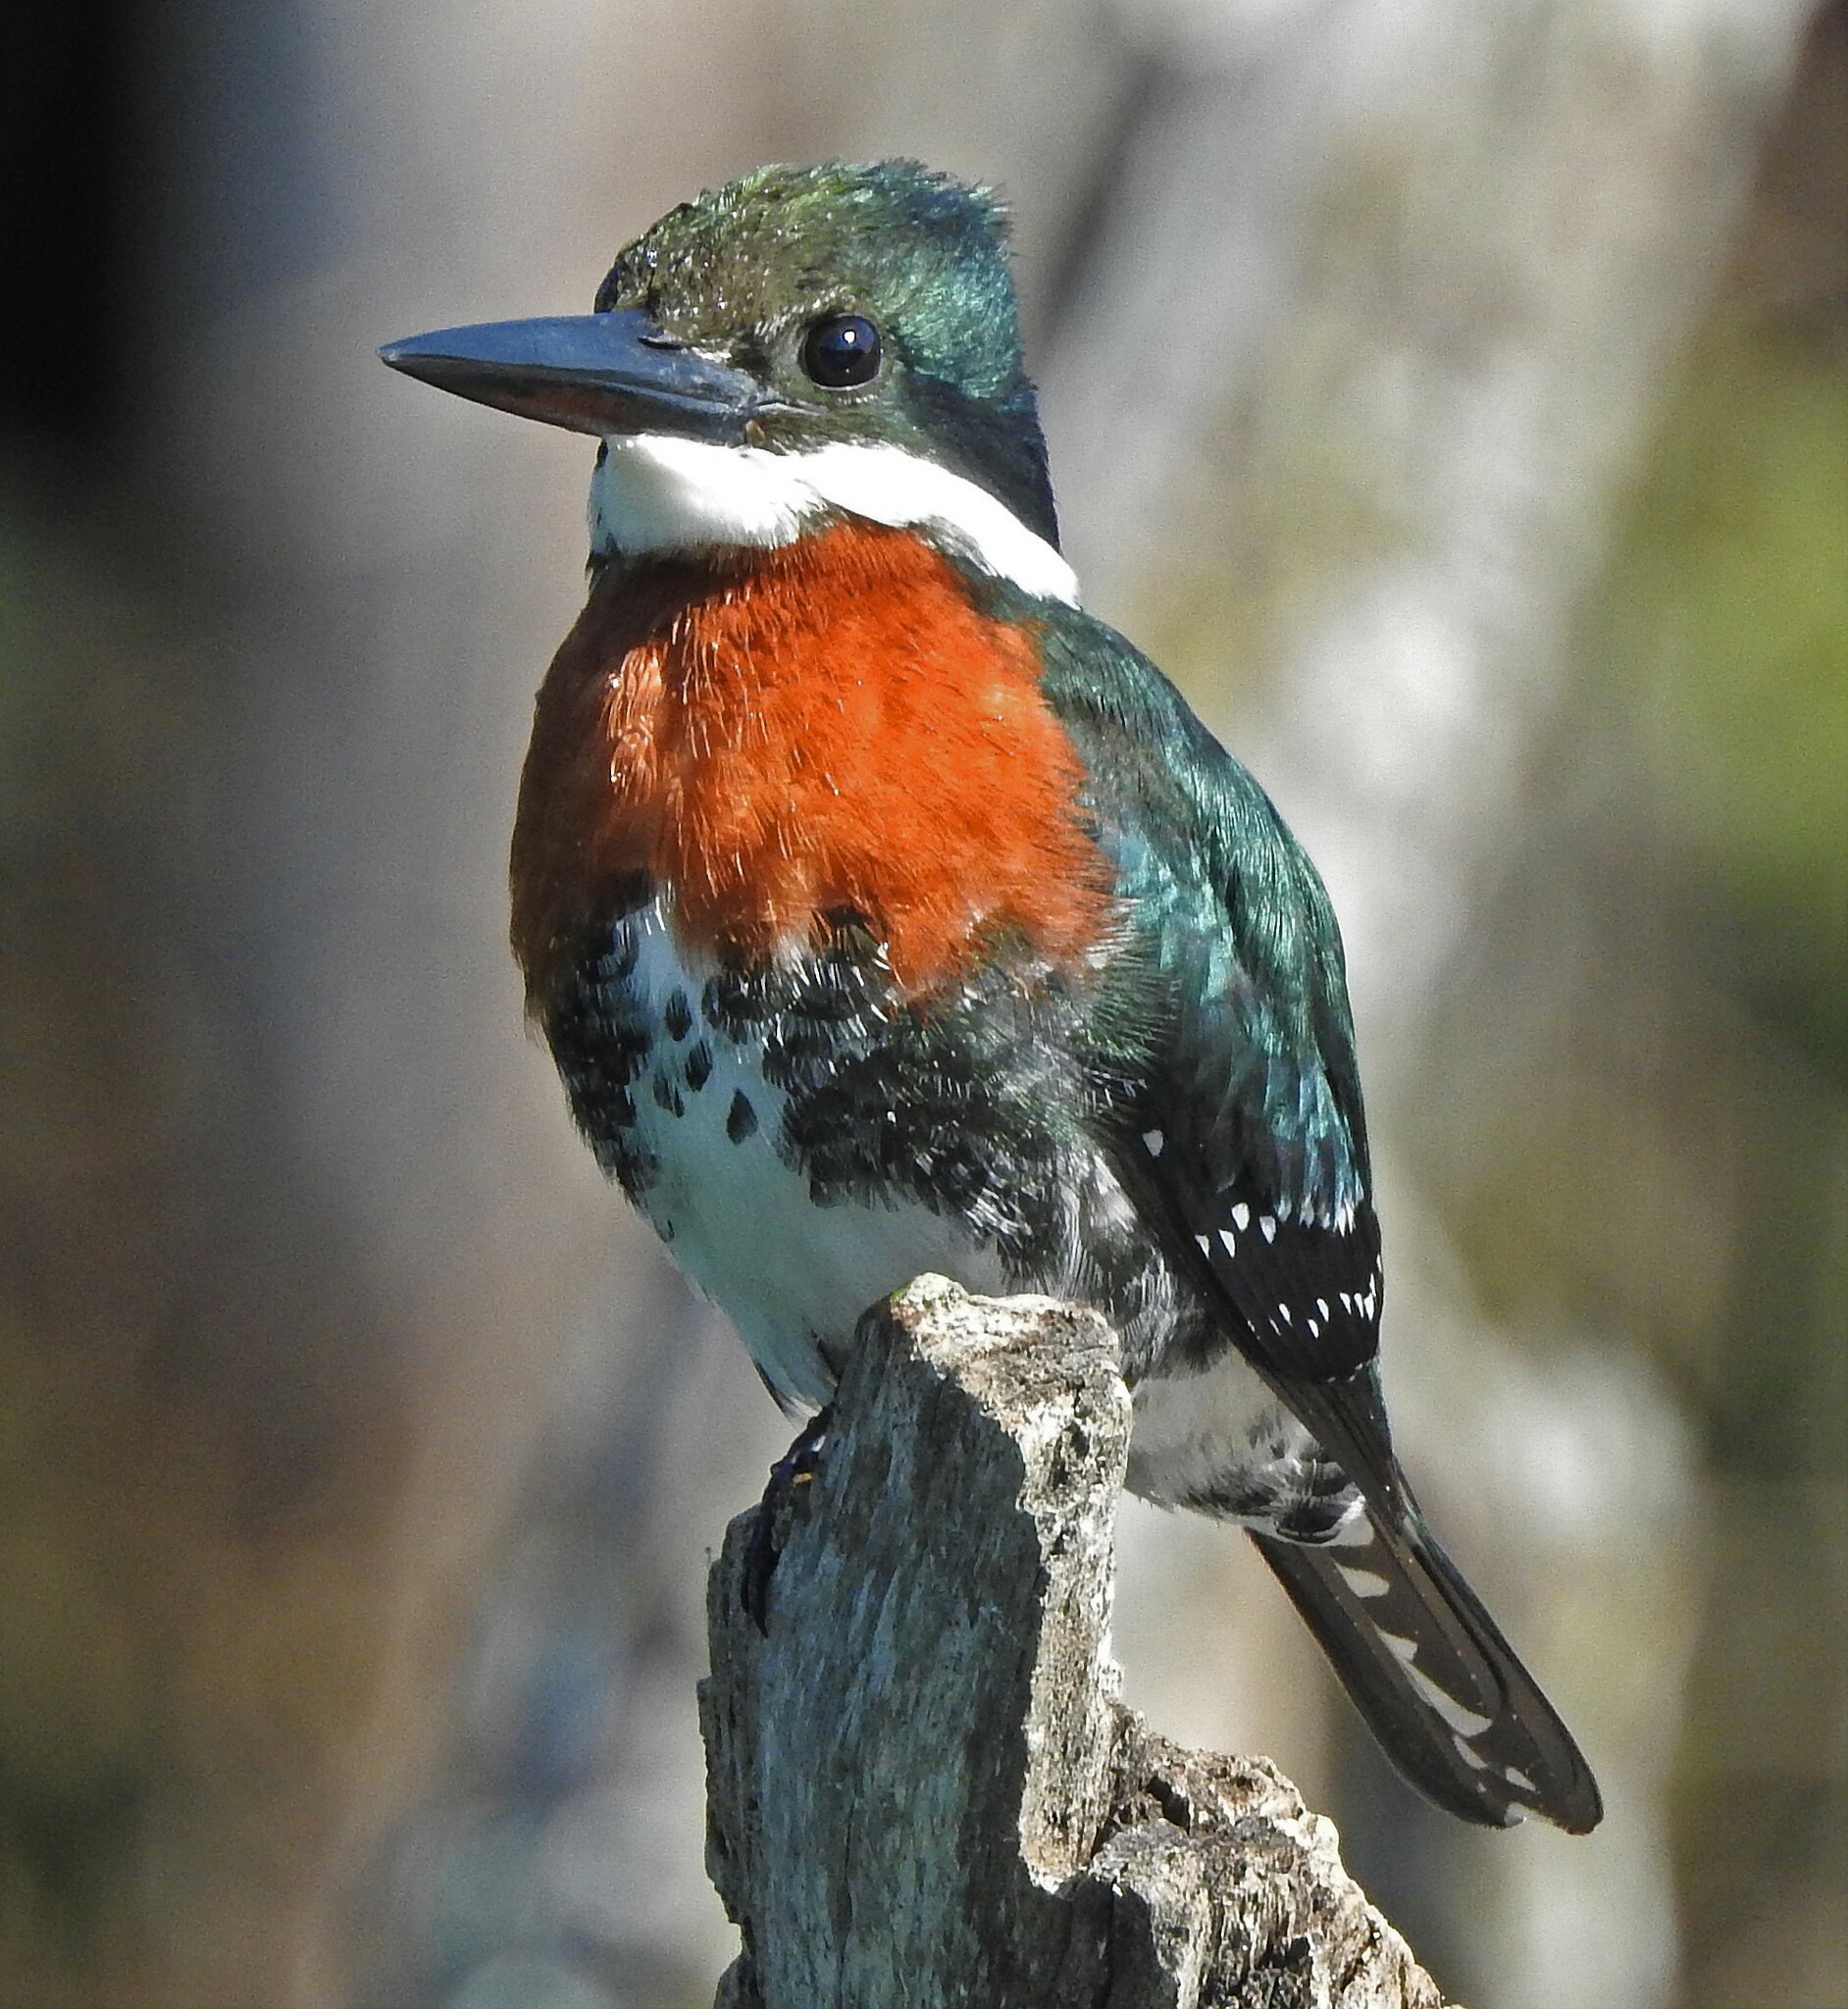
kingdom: Animalia
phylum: Chordata
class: Aves
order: Coraciiformes
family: Alcedinidae
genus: Chloroceryle
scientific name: Chloroceryle americana
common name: Green kingfisher
